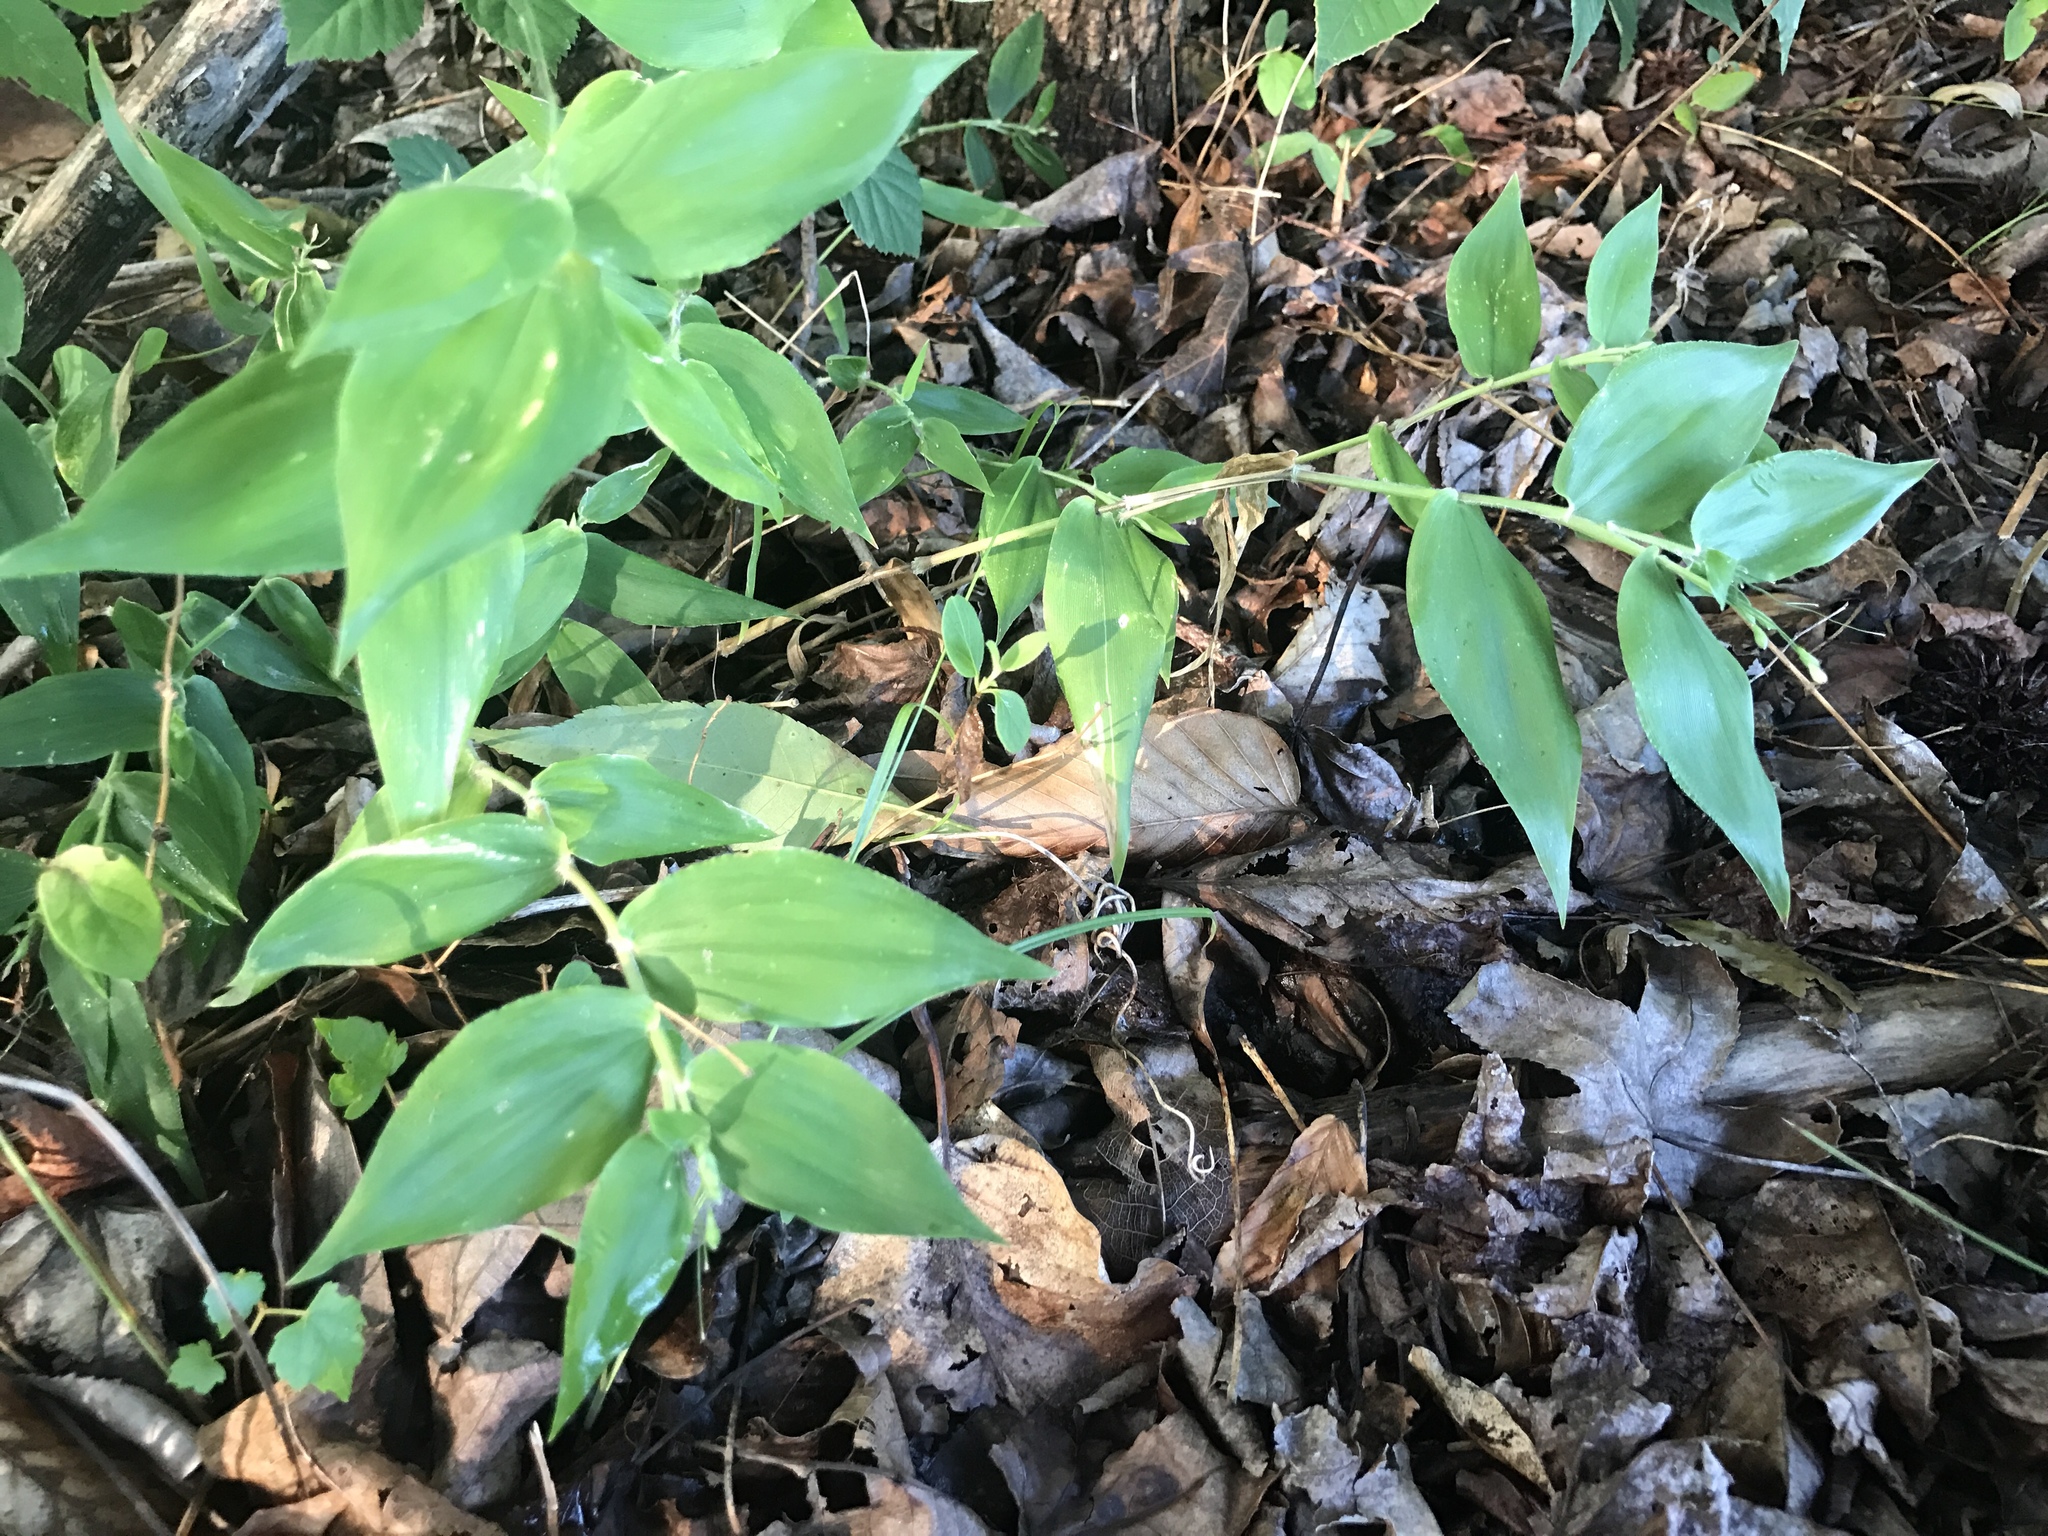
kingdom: Plantae
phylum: Tracheophyta
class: Liliopsida
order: Poales
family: Poaceae
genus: Dichanthelium
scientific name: Dichanthelium boscii
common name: Bosc's panic grass
